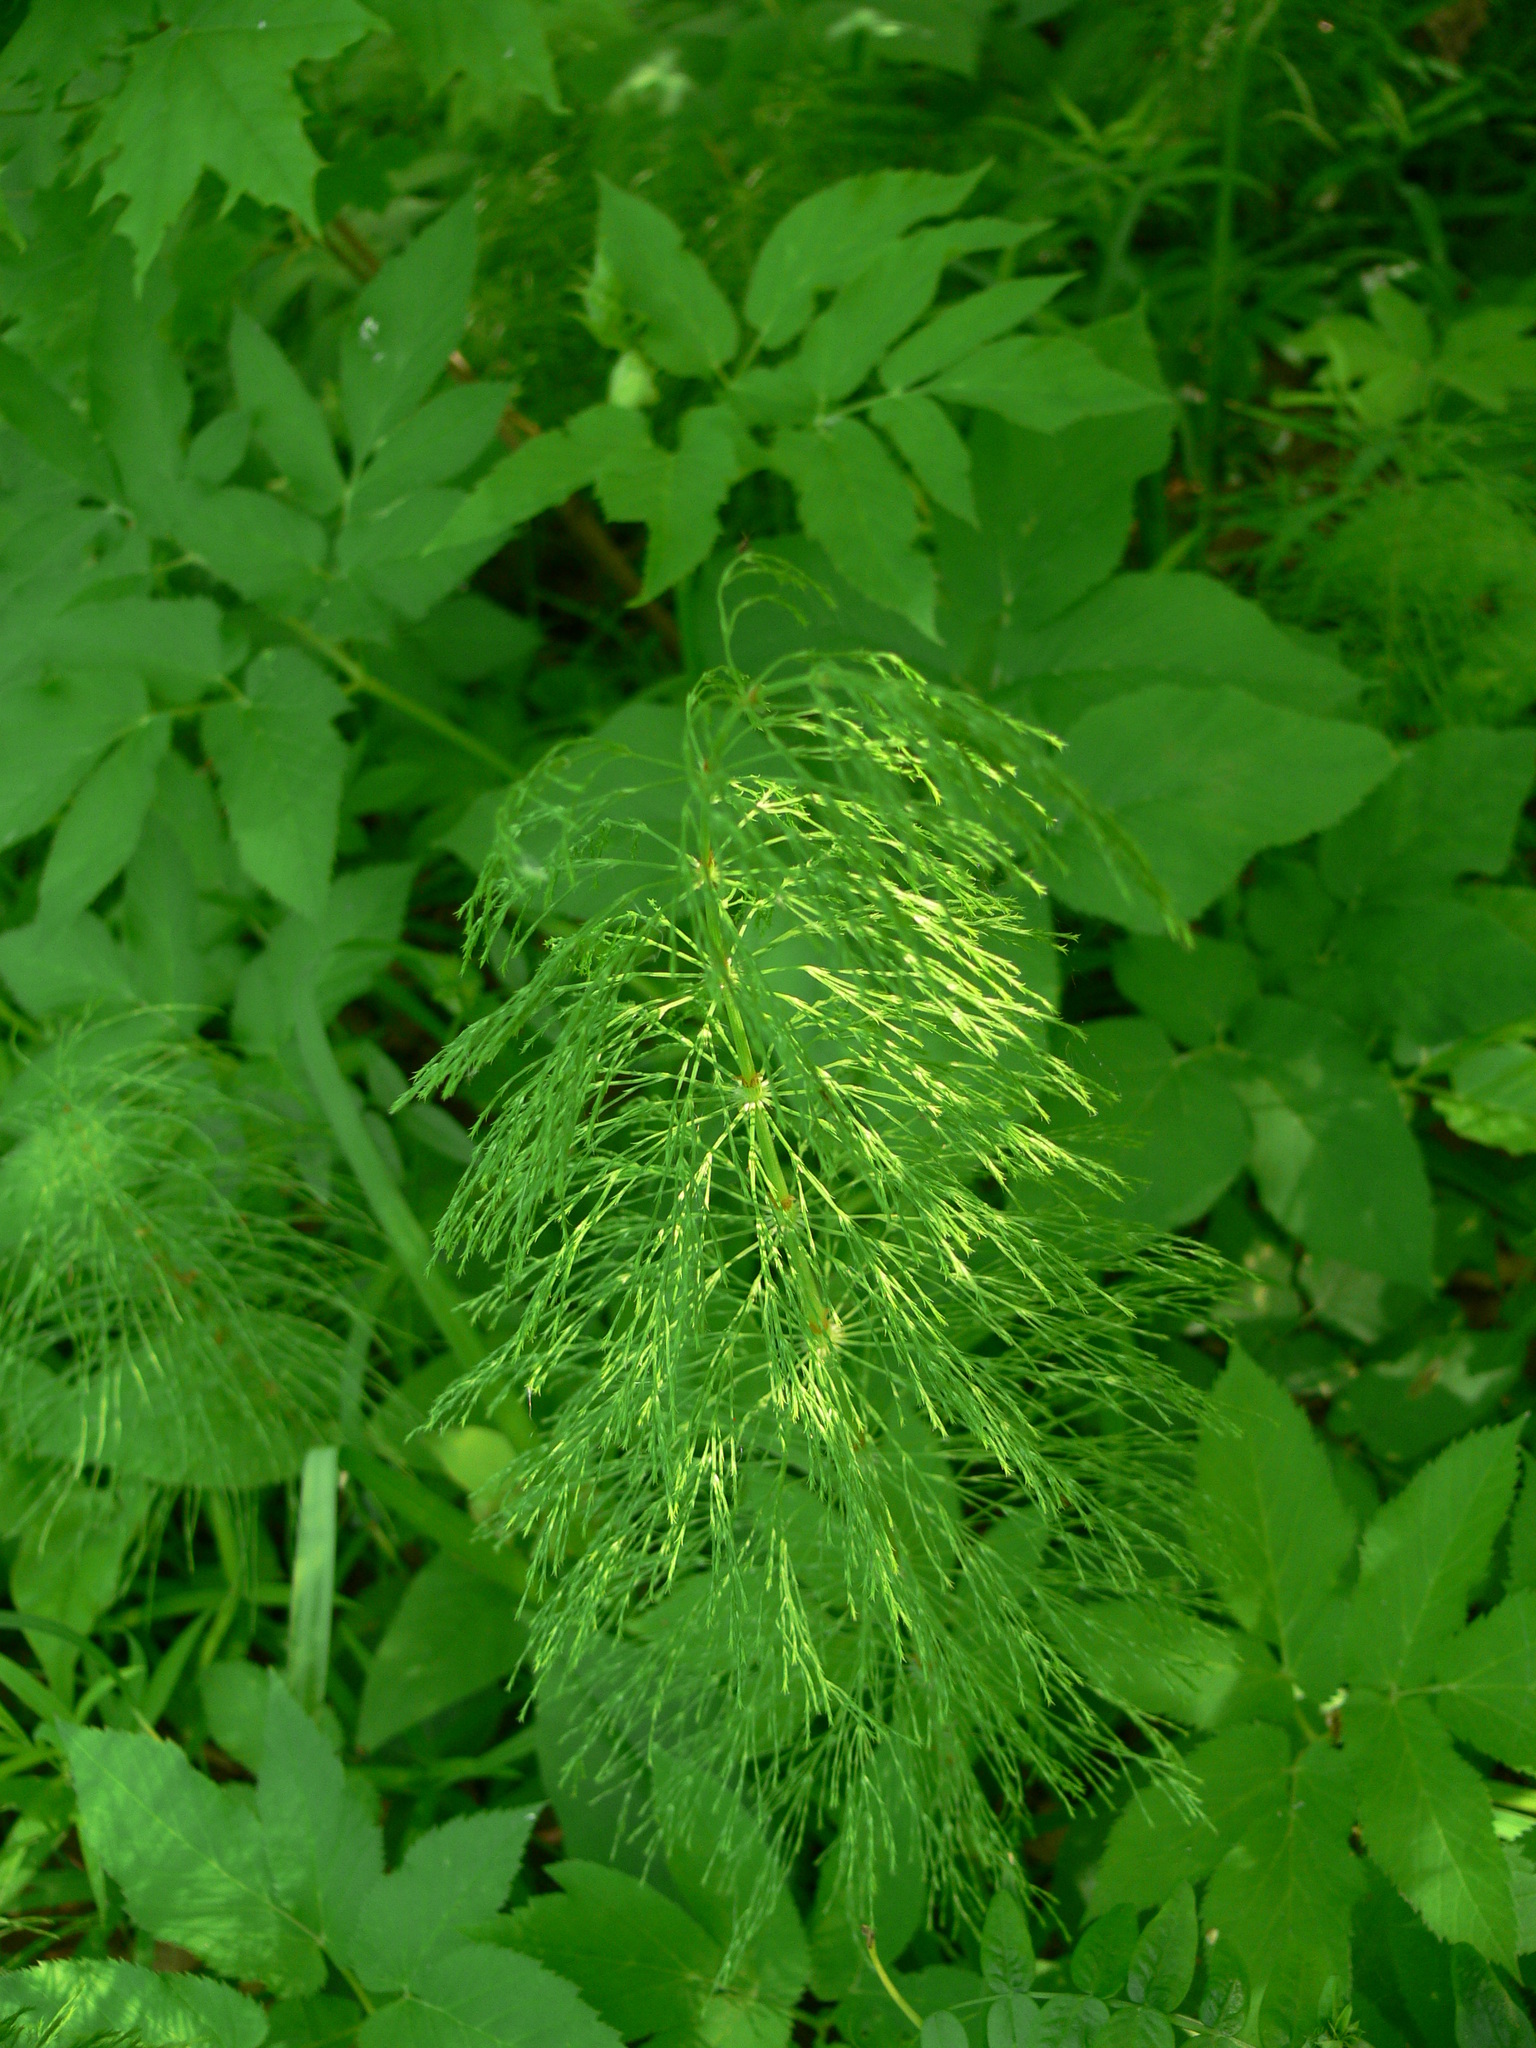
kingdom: Plantae
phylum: Tracheophyta
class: Polypodiopsida
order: Equisetales
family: Equisetaceae
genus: Equisetum
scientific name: Equisetum sylvaticum
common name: Wood horsetail
